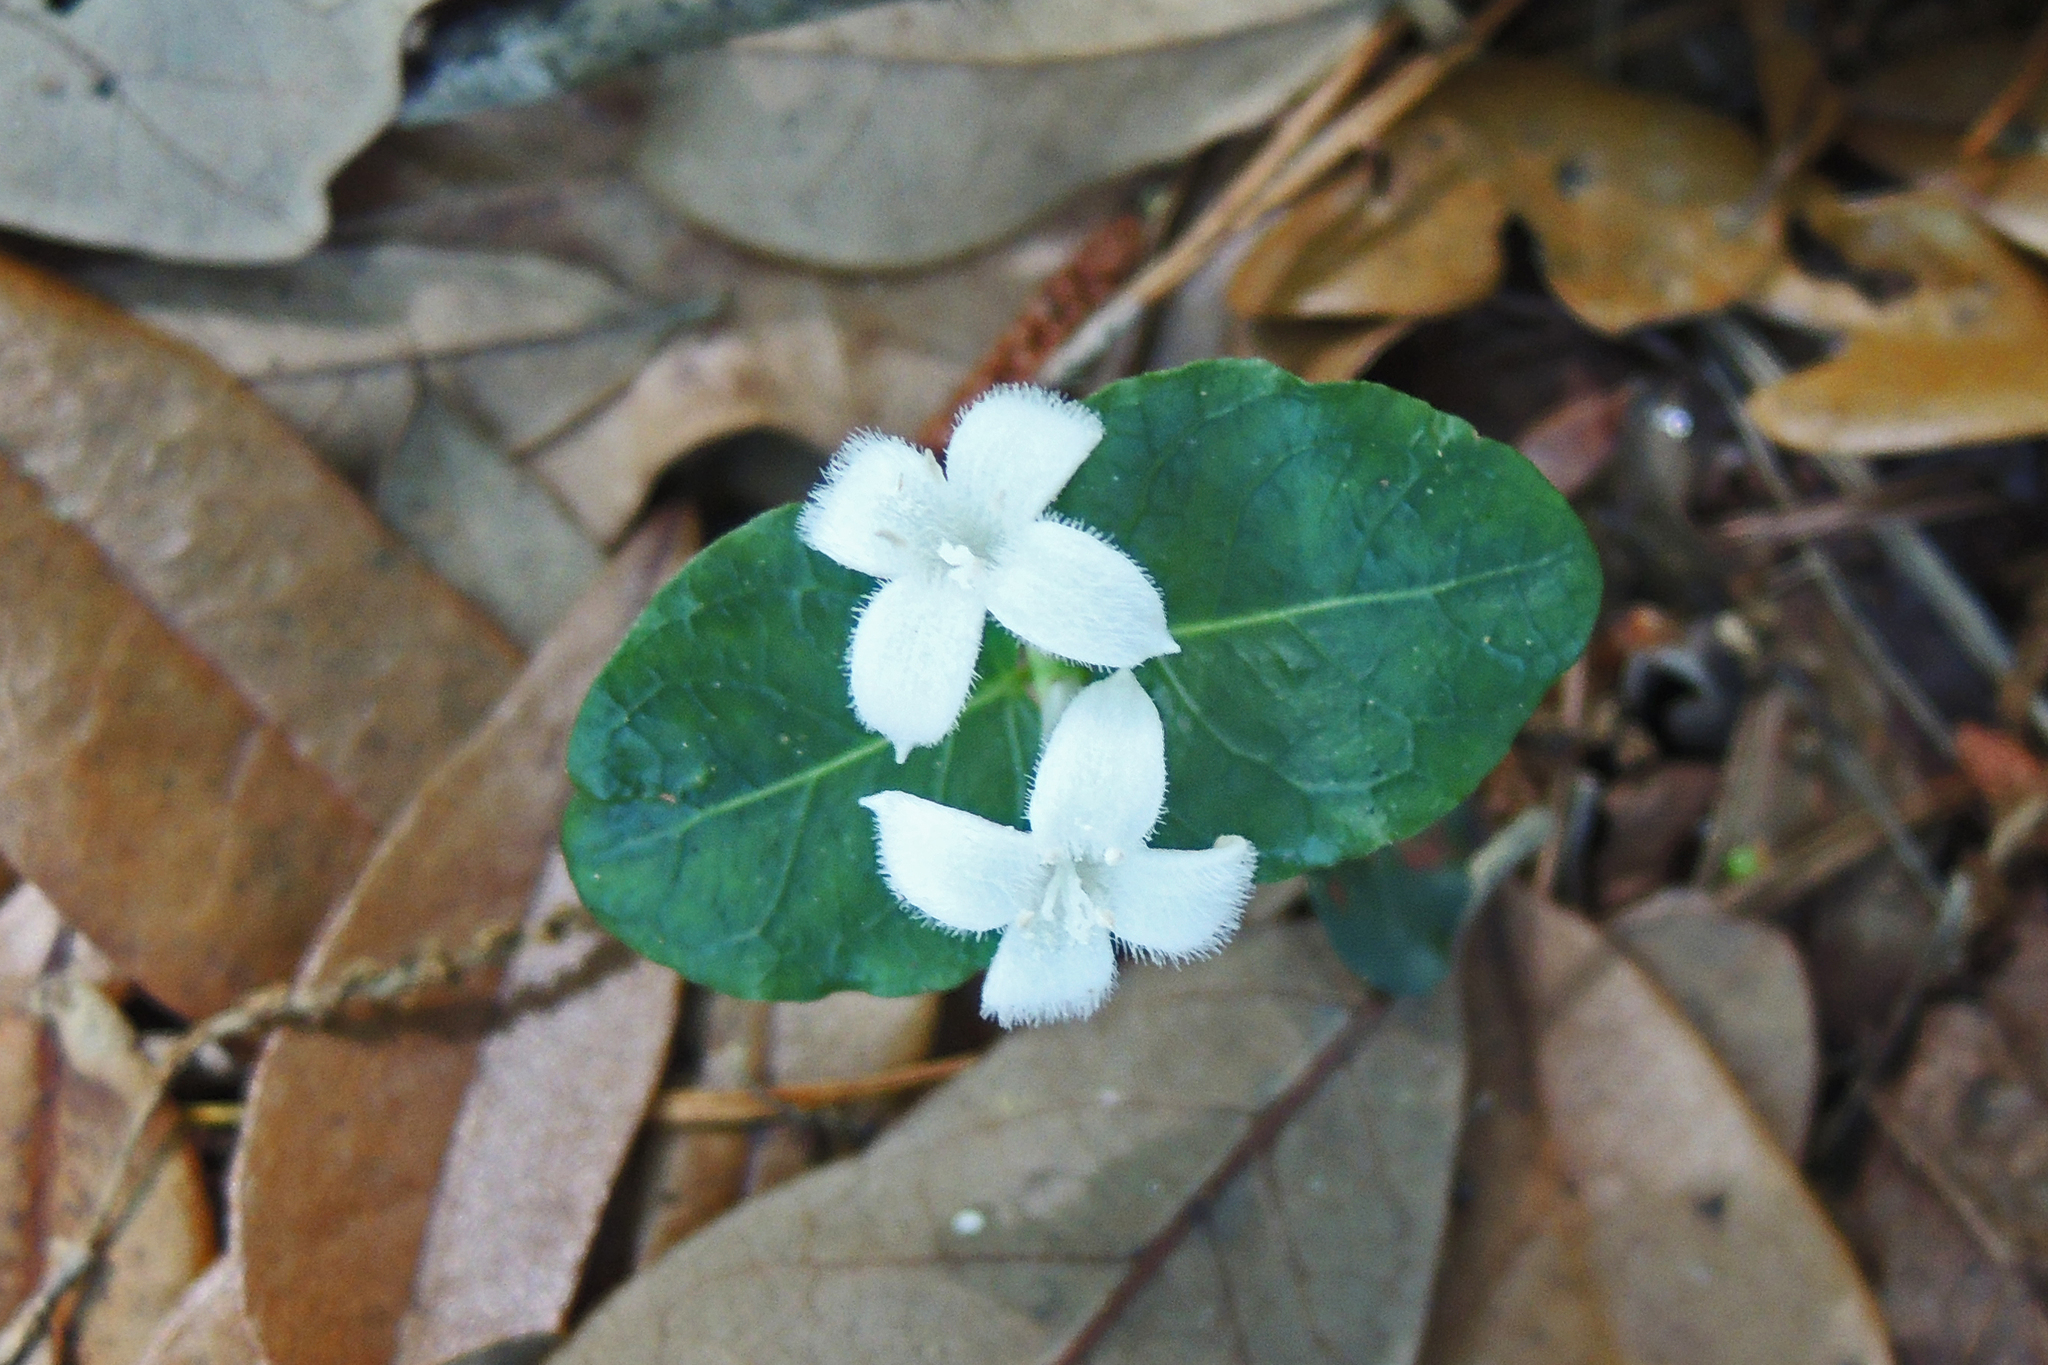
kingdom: Plantae
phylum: Tracheophyta
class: Magnoliopsida
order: Gentianales
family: Rubiaceae
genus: Mitchella
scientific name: Mitchella repens
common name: Partridge-berry
